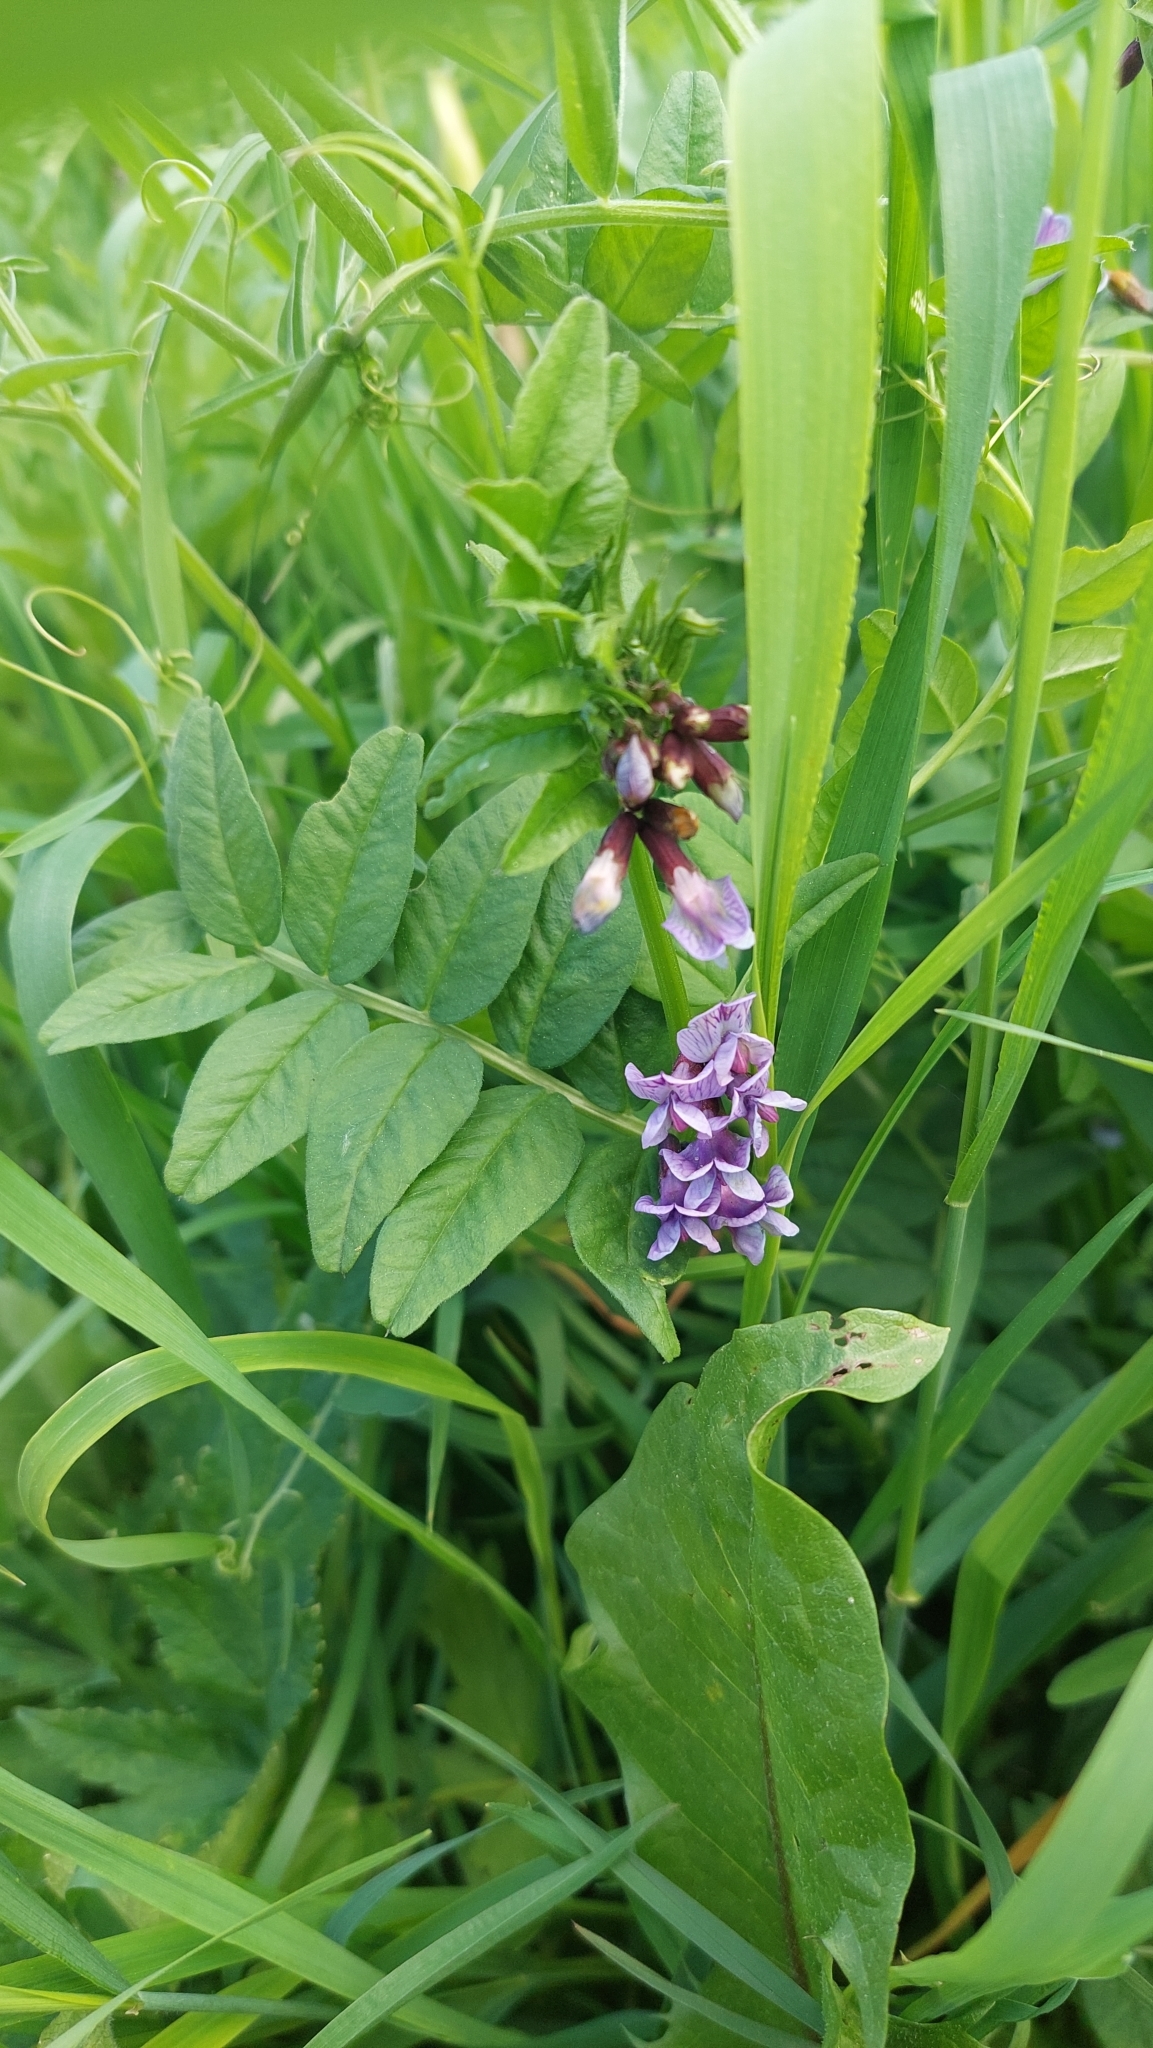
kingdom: Plantae
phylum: Tracheophyta
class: Magnoliopsida
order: Fabales
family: Fabaceae
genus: Vicia
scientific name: Vicia sepium
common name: Bush vetch
